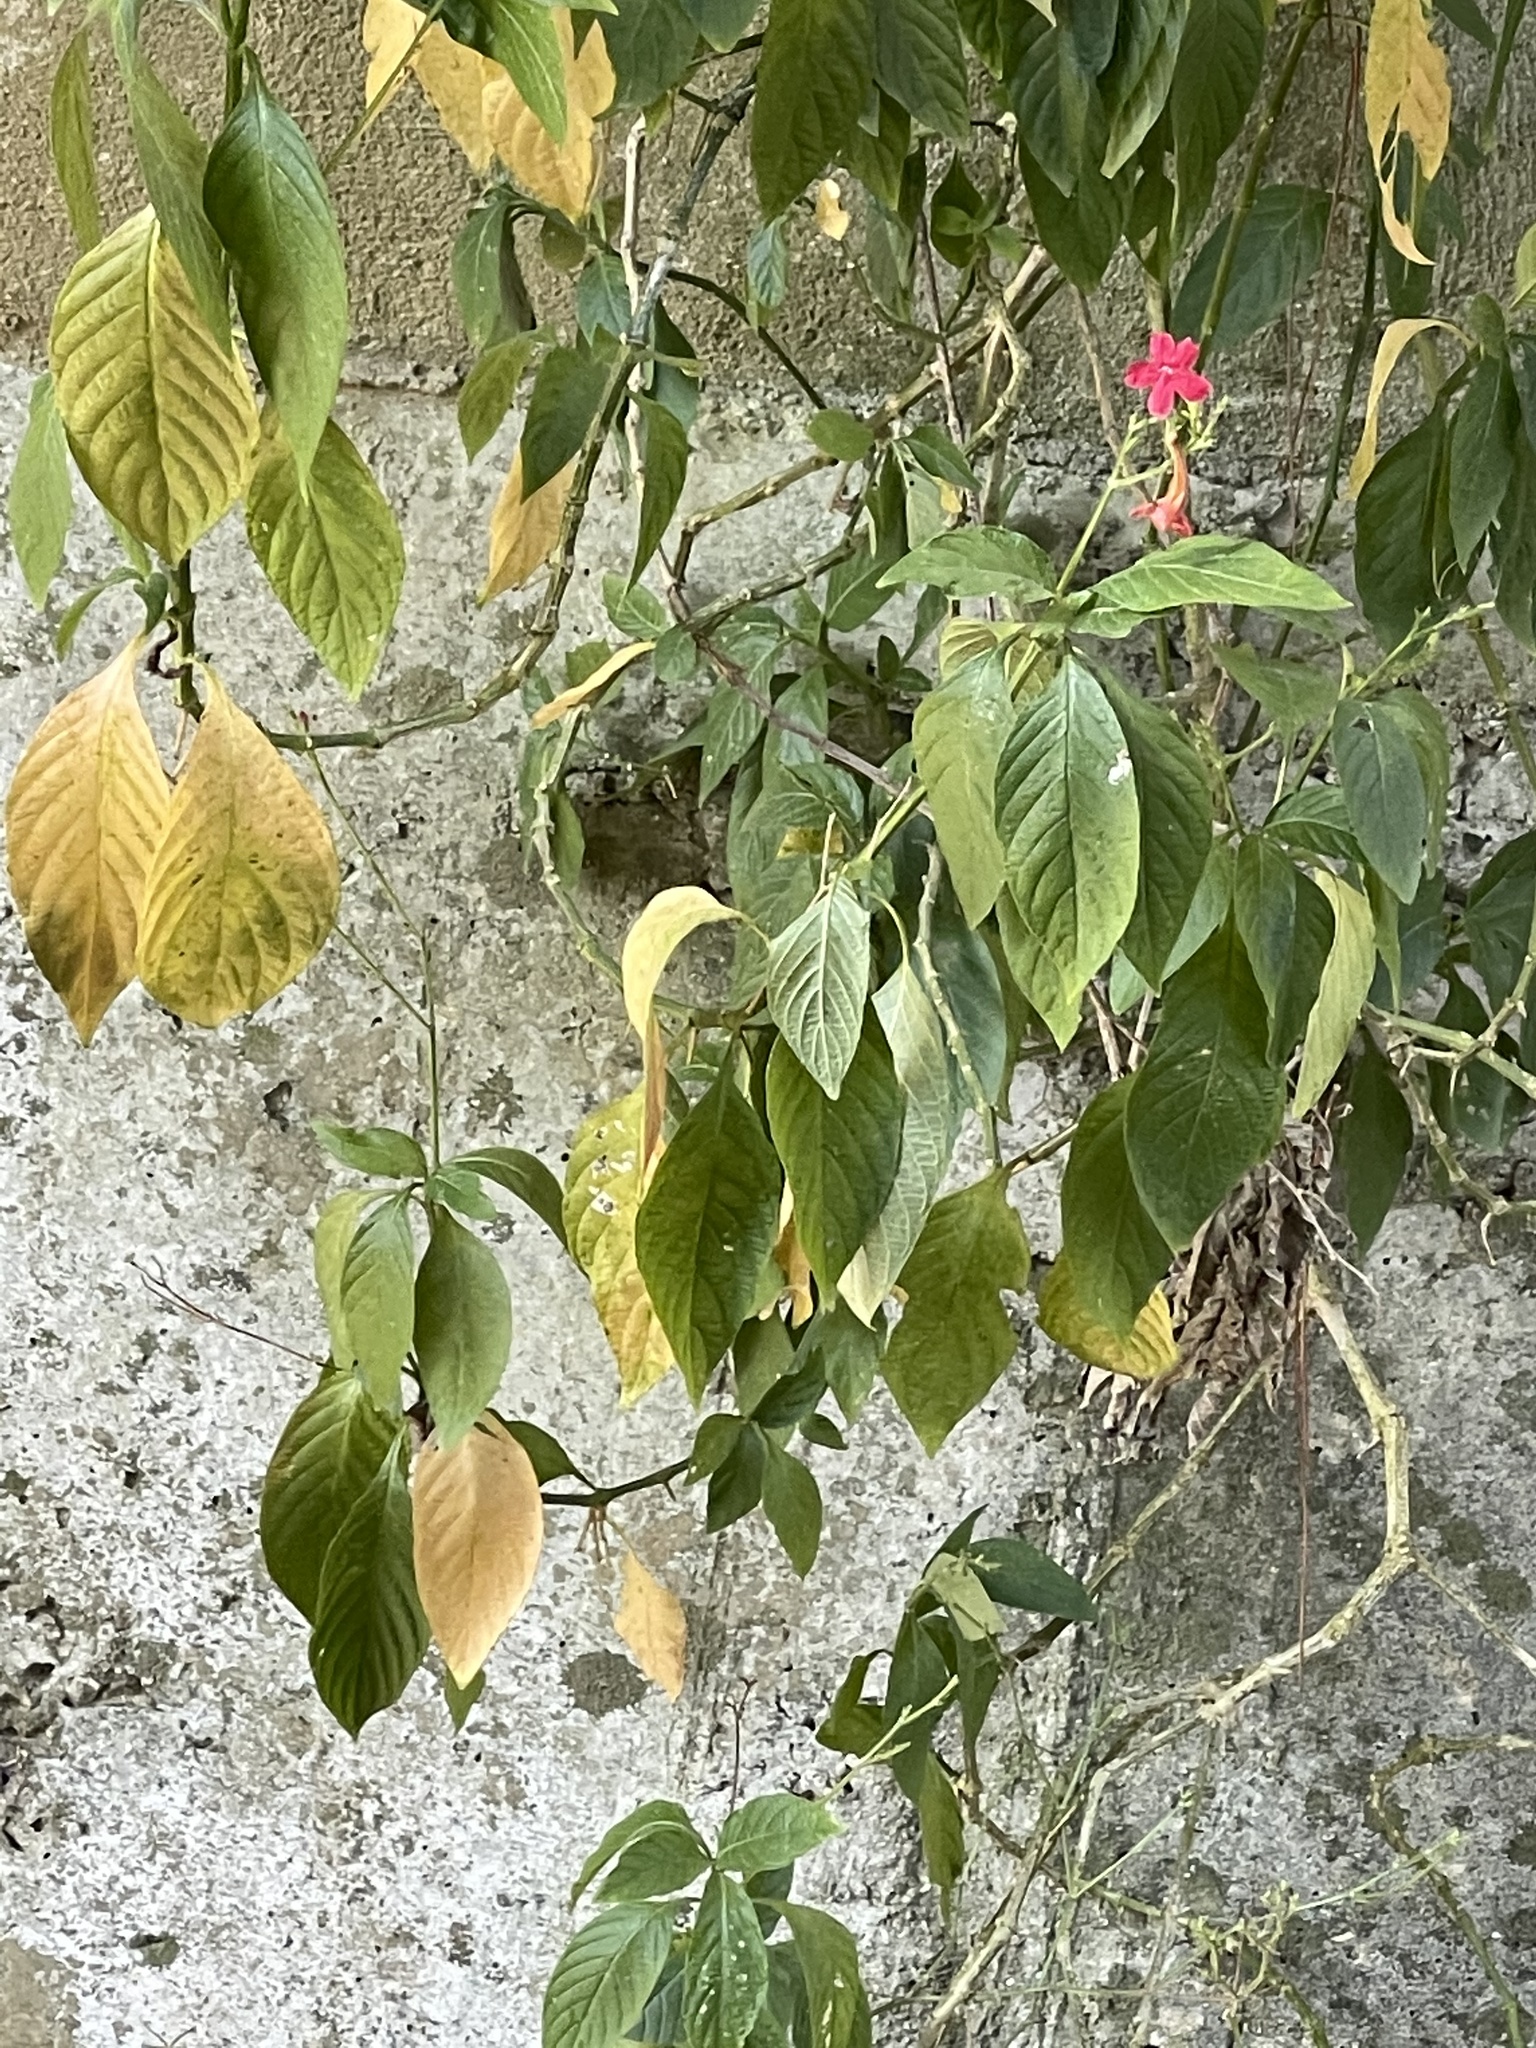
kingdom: Plantae
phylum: Tracheophyta
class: Magnoliopsida
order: Lamiales
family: Acanthaceae
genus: Ruellia
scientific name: Ruellia elegans
